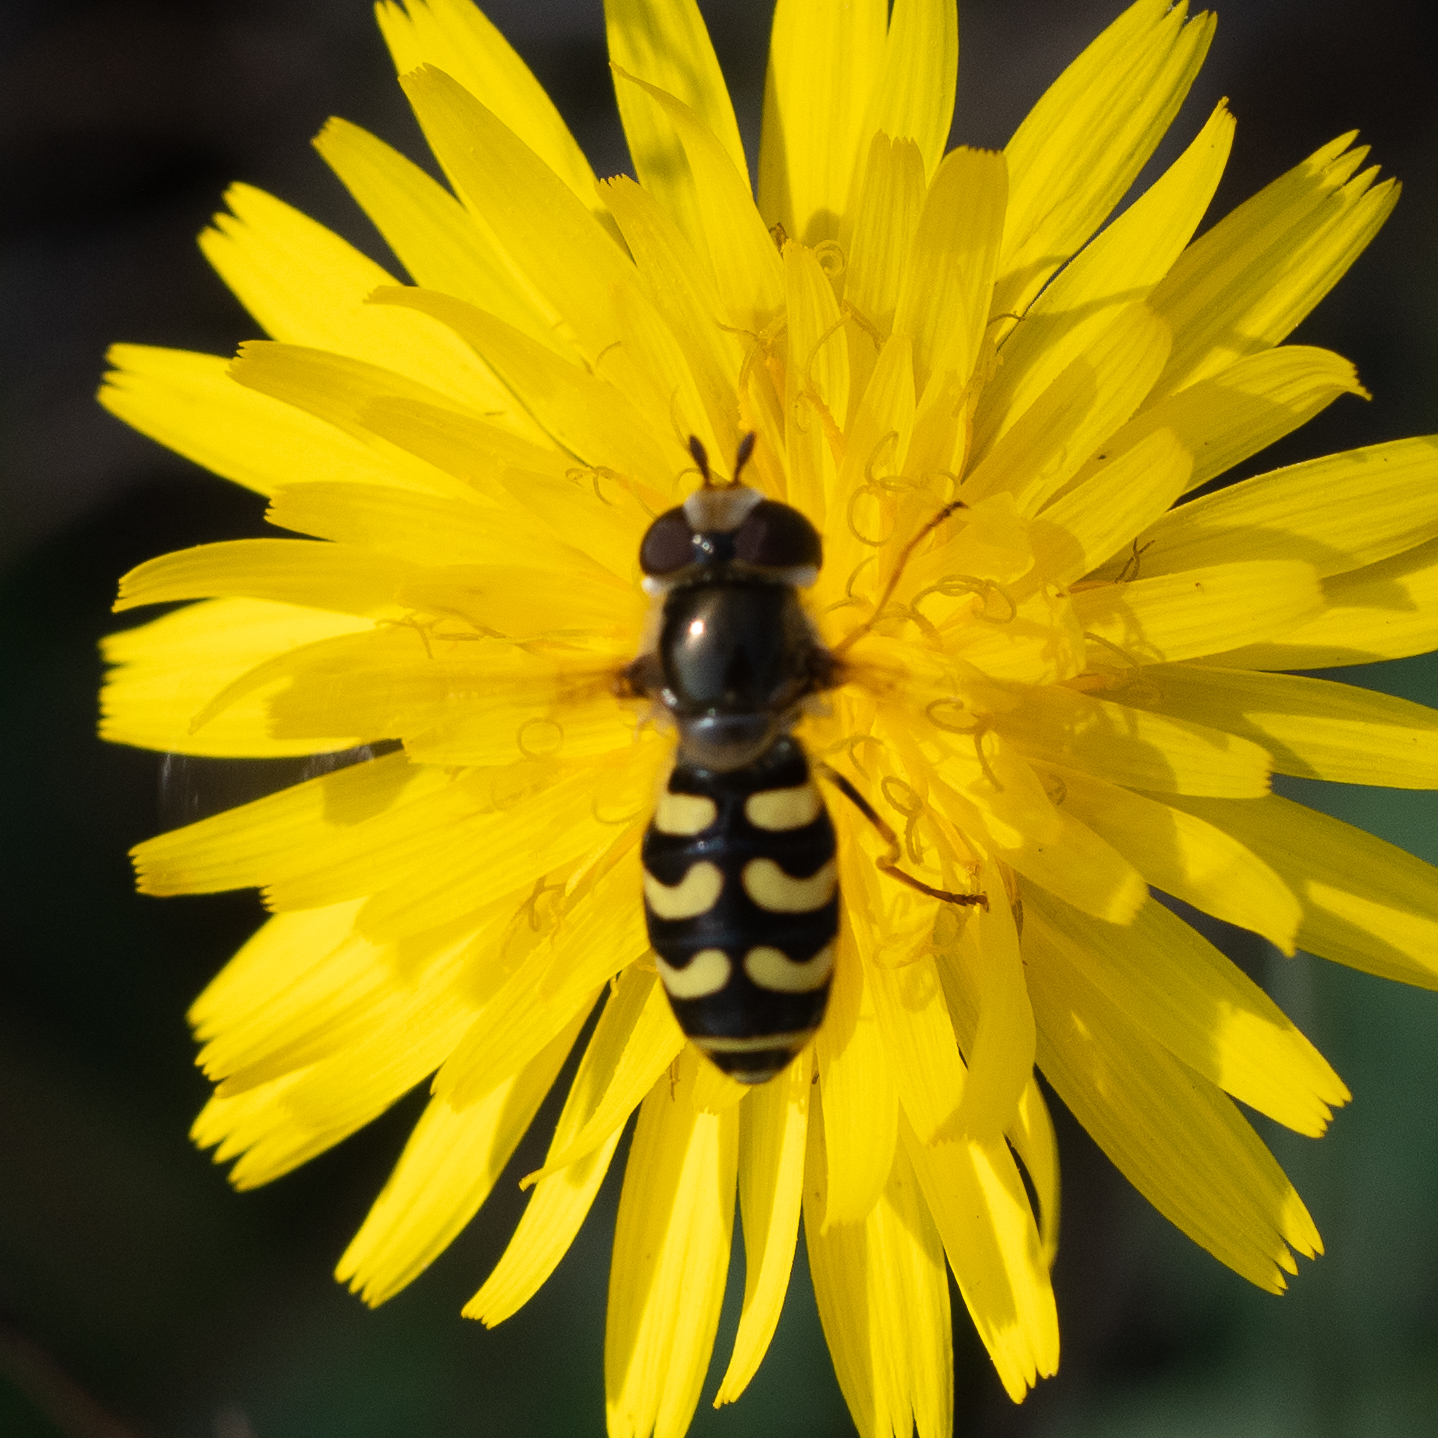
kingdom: Animalia
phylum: Arthropoda
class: Insecta
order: Diptera
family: Syrphidae
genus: Scaeva
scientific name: Scaeva dignota
